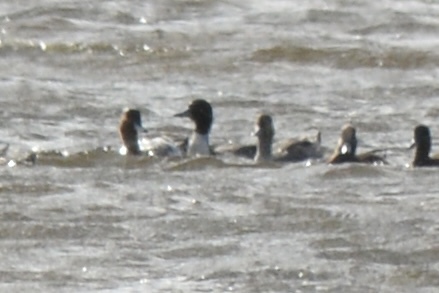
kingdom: Animalia
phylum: Chordata
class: Aves
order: Anseriformes
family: Anatidae
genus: Anas
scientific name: Anas acuta
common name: Northern pintail
